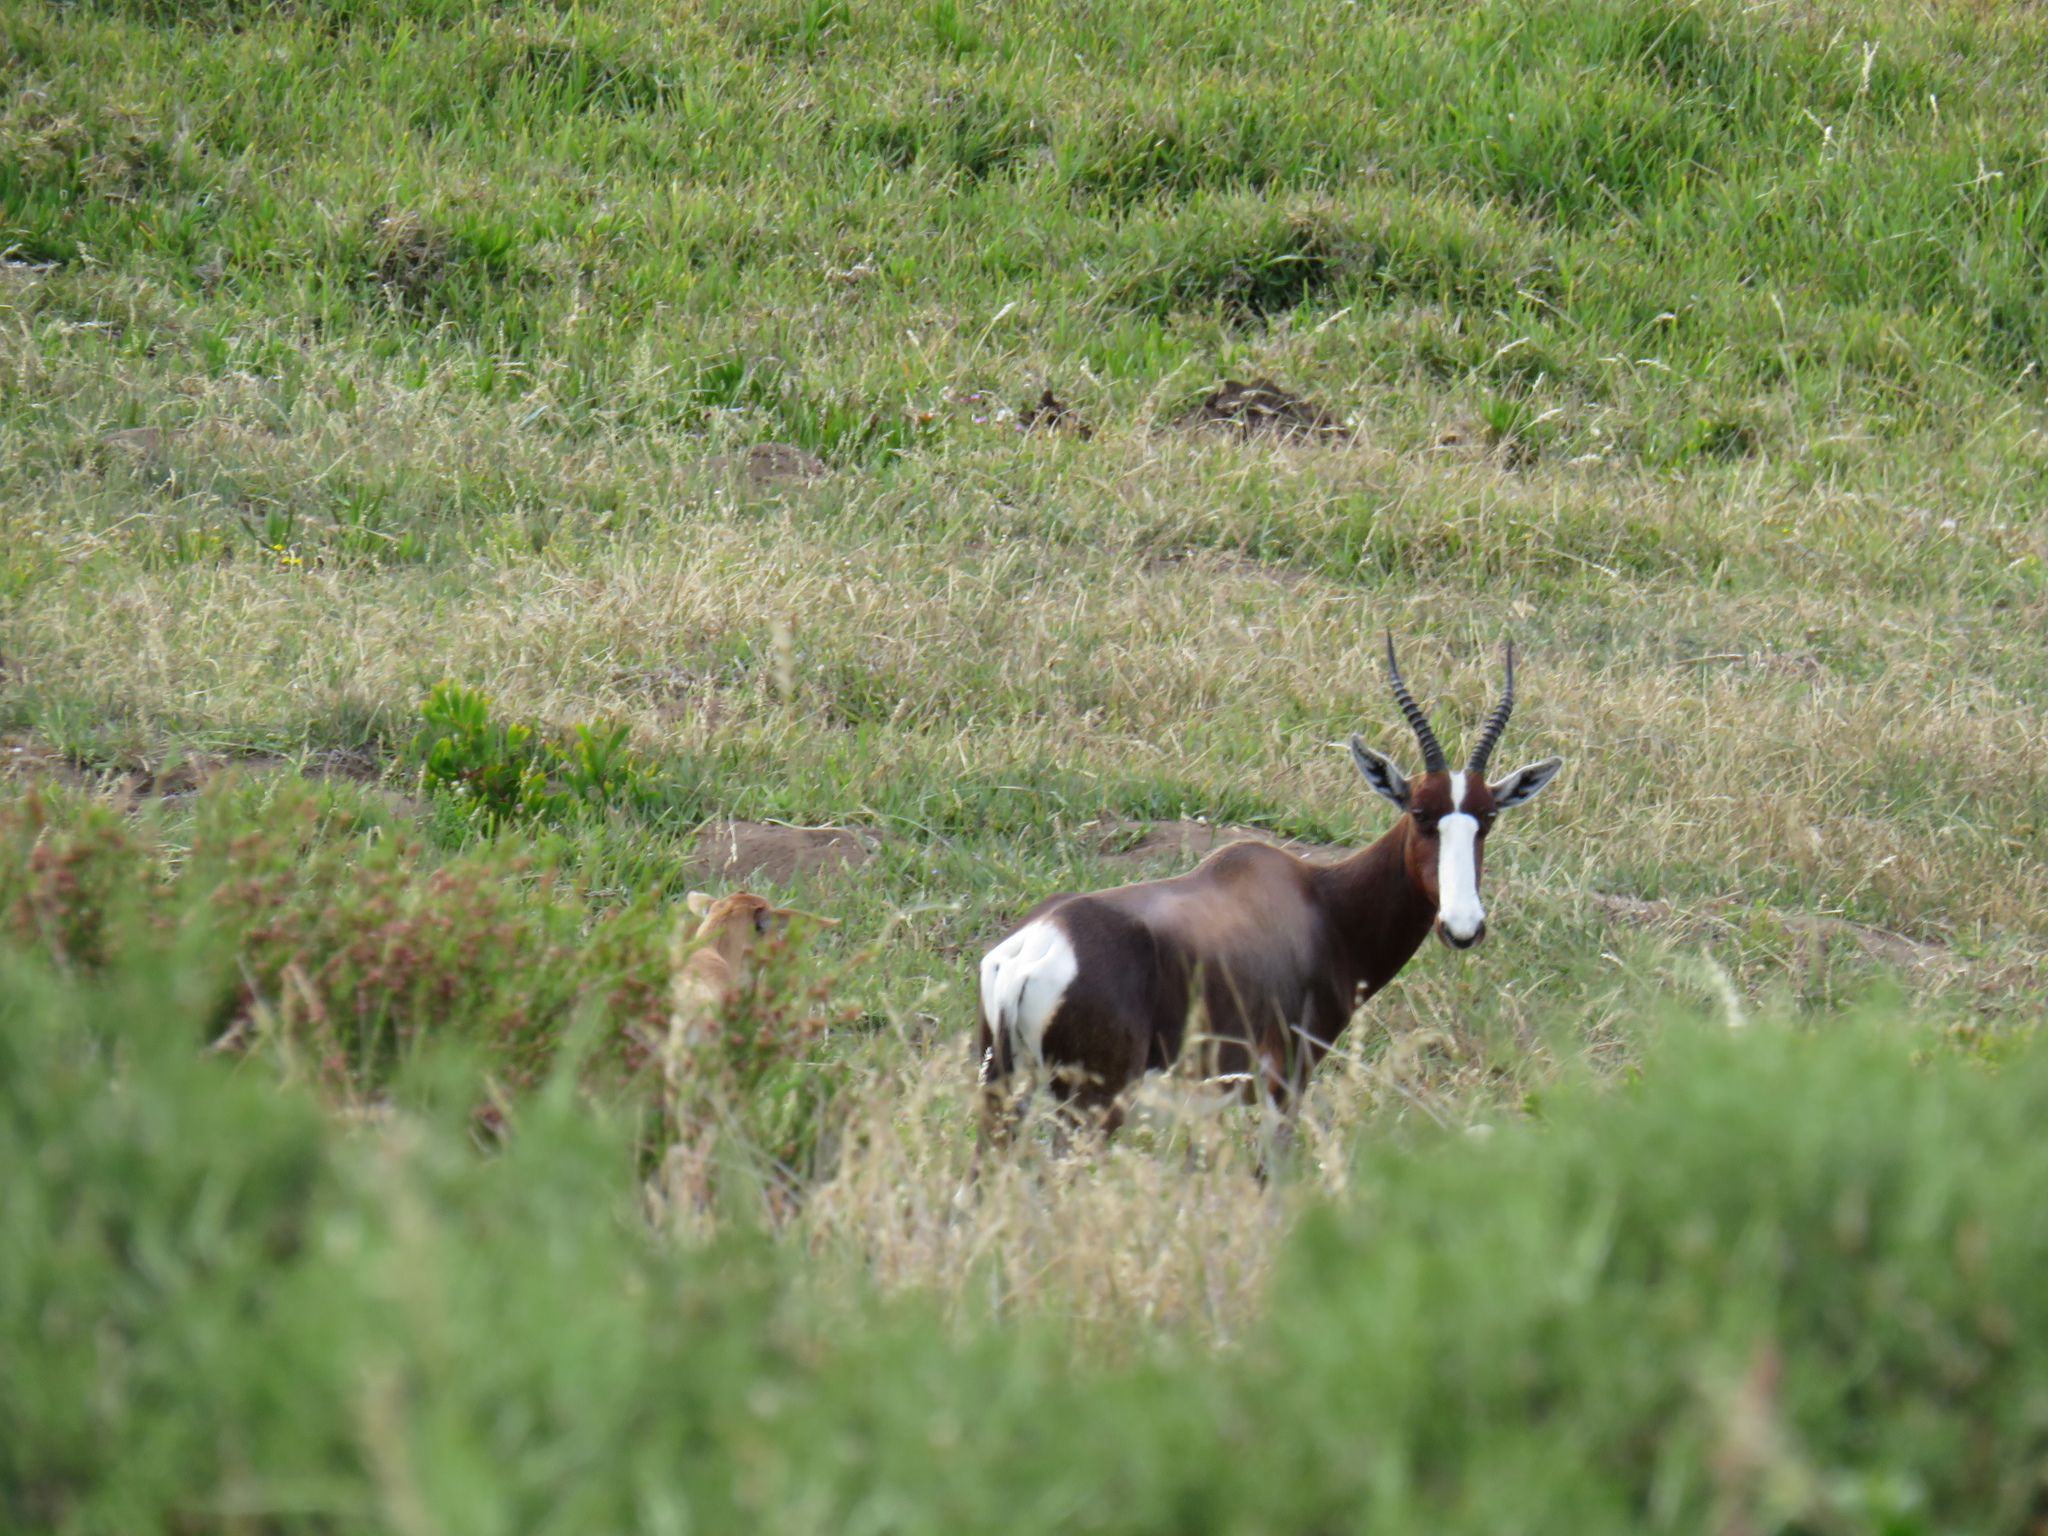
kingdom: Animalia
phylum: Chordata
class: Mammalia
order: Artiodactyla
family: Bovidae
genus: Damaliscus
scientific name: Damaliscus pygargus
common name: Bontebok
